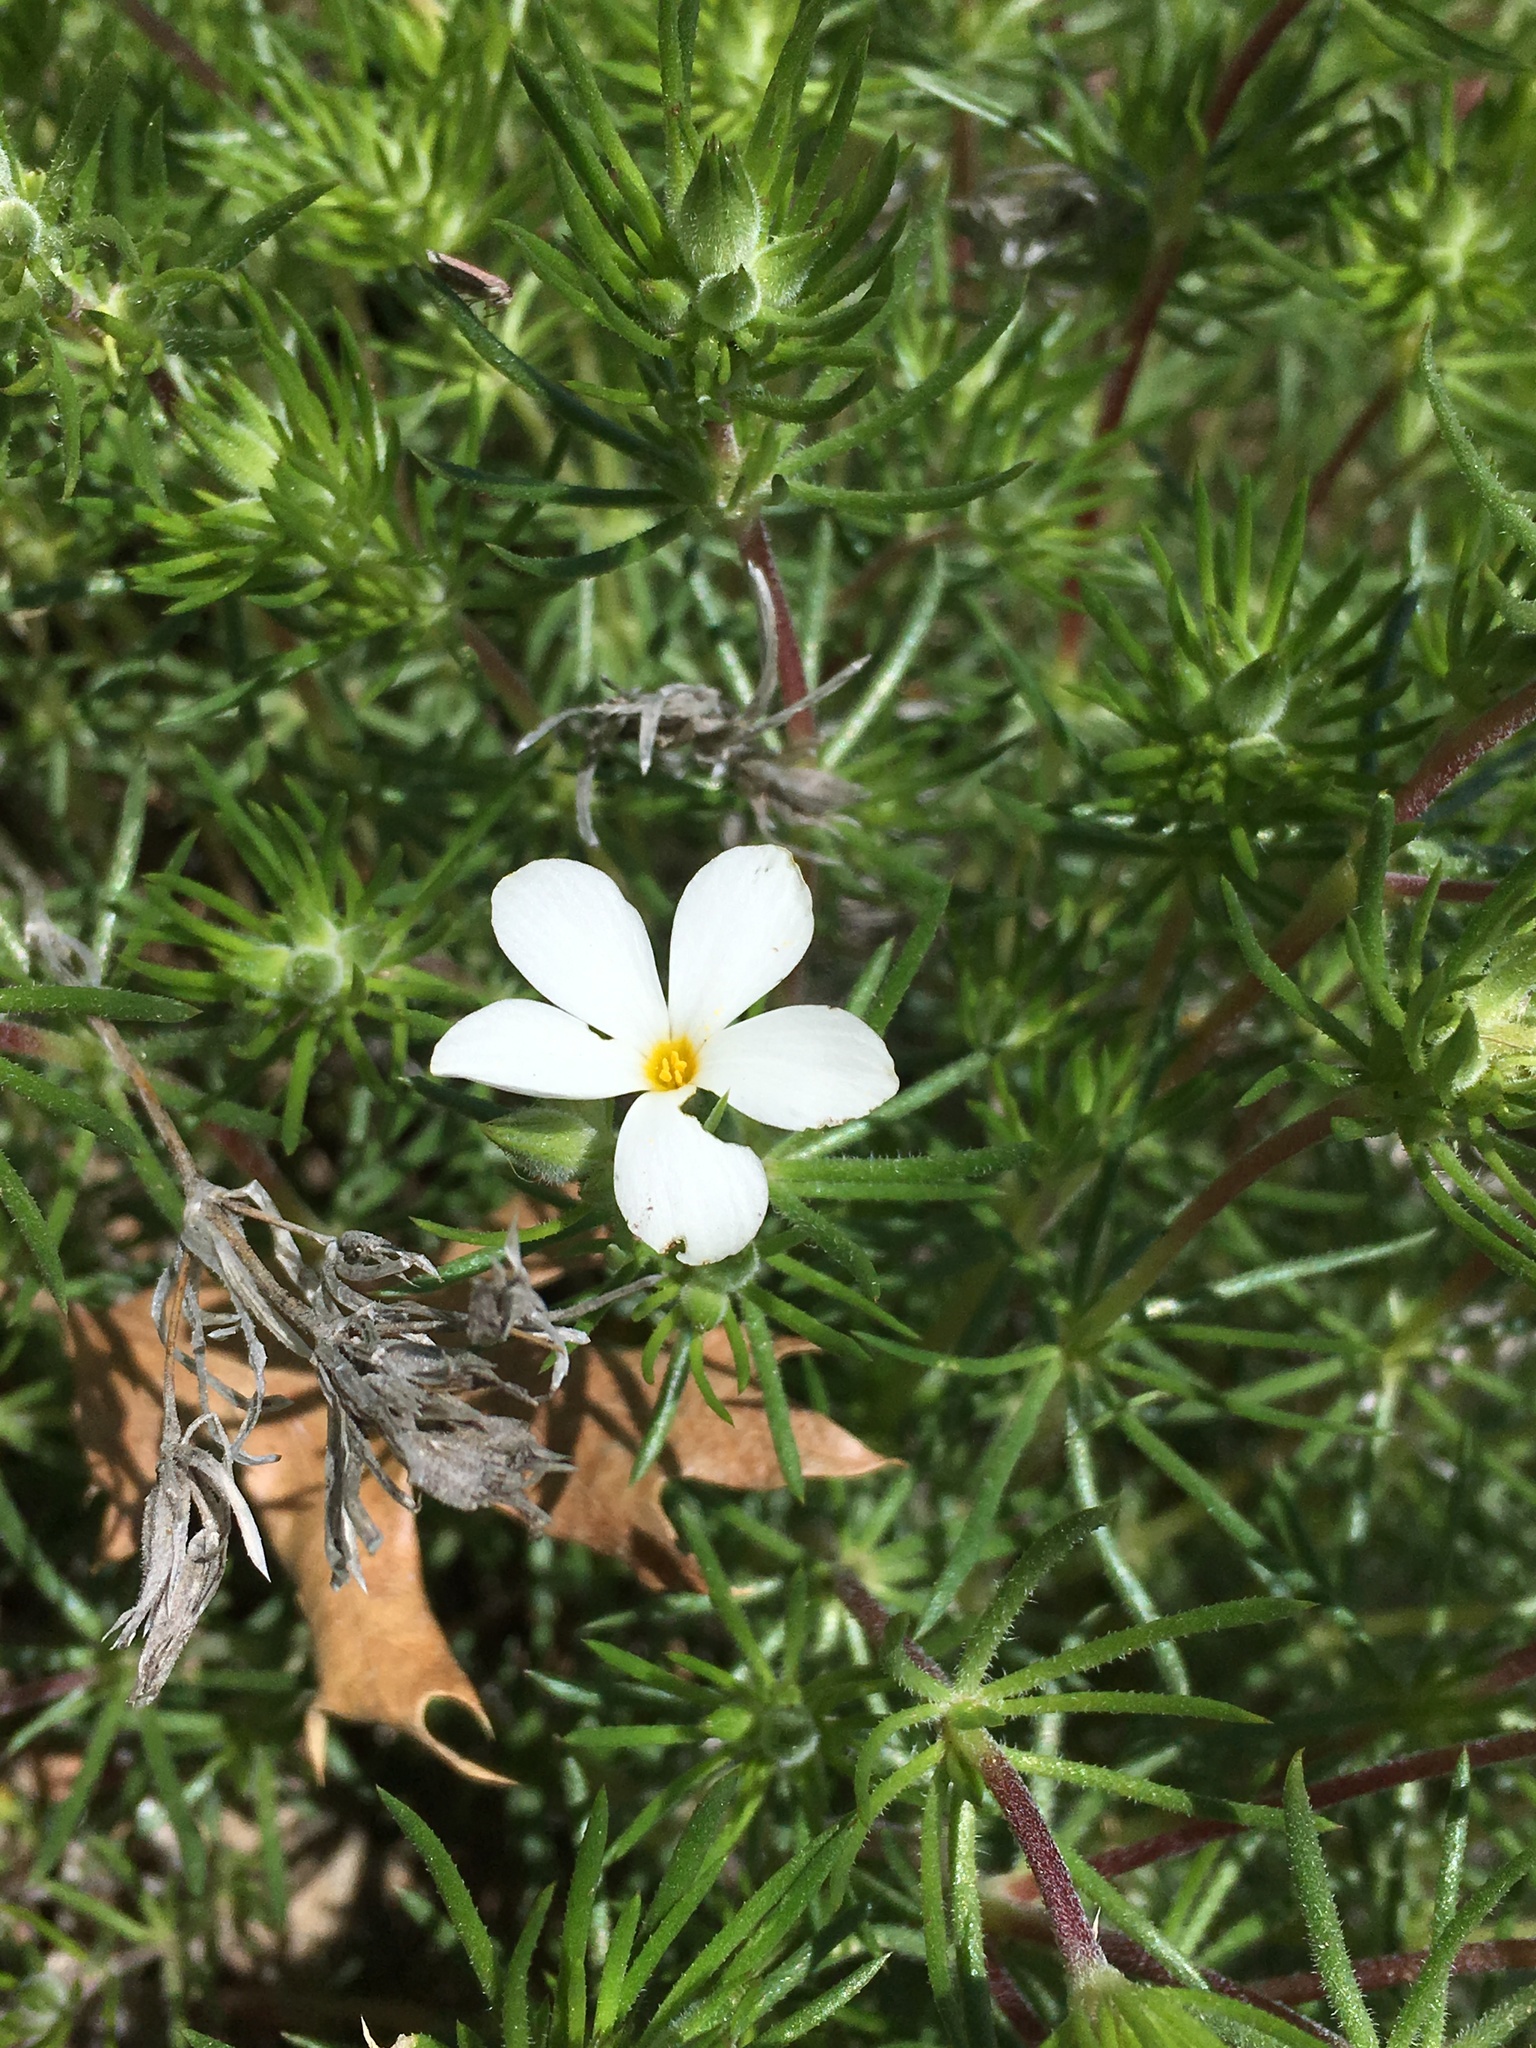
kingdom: Plantae
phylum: Tracheophyta
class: Magnoliopsida
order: Ericales
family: Polemoniaceae
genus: Leptosiphon
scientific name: Leptosiphon floribundum
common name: Many-flower linanthus
